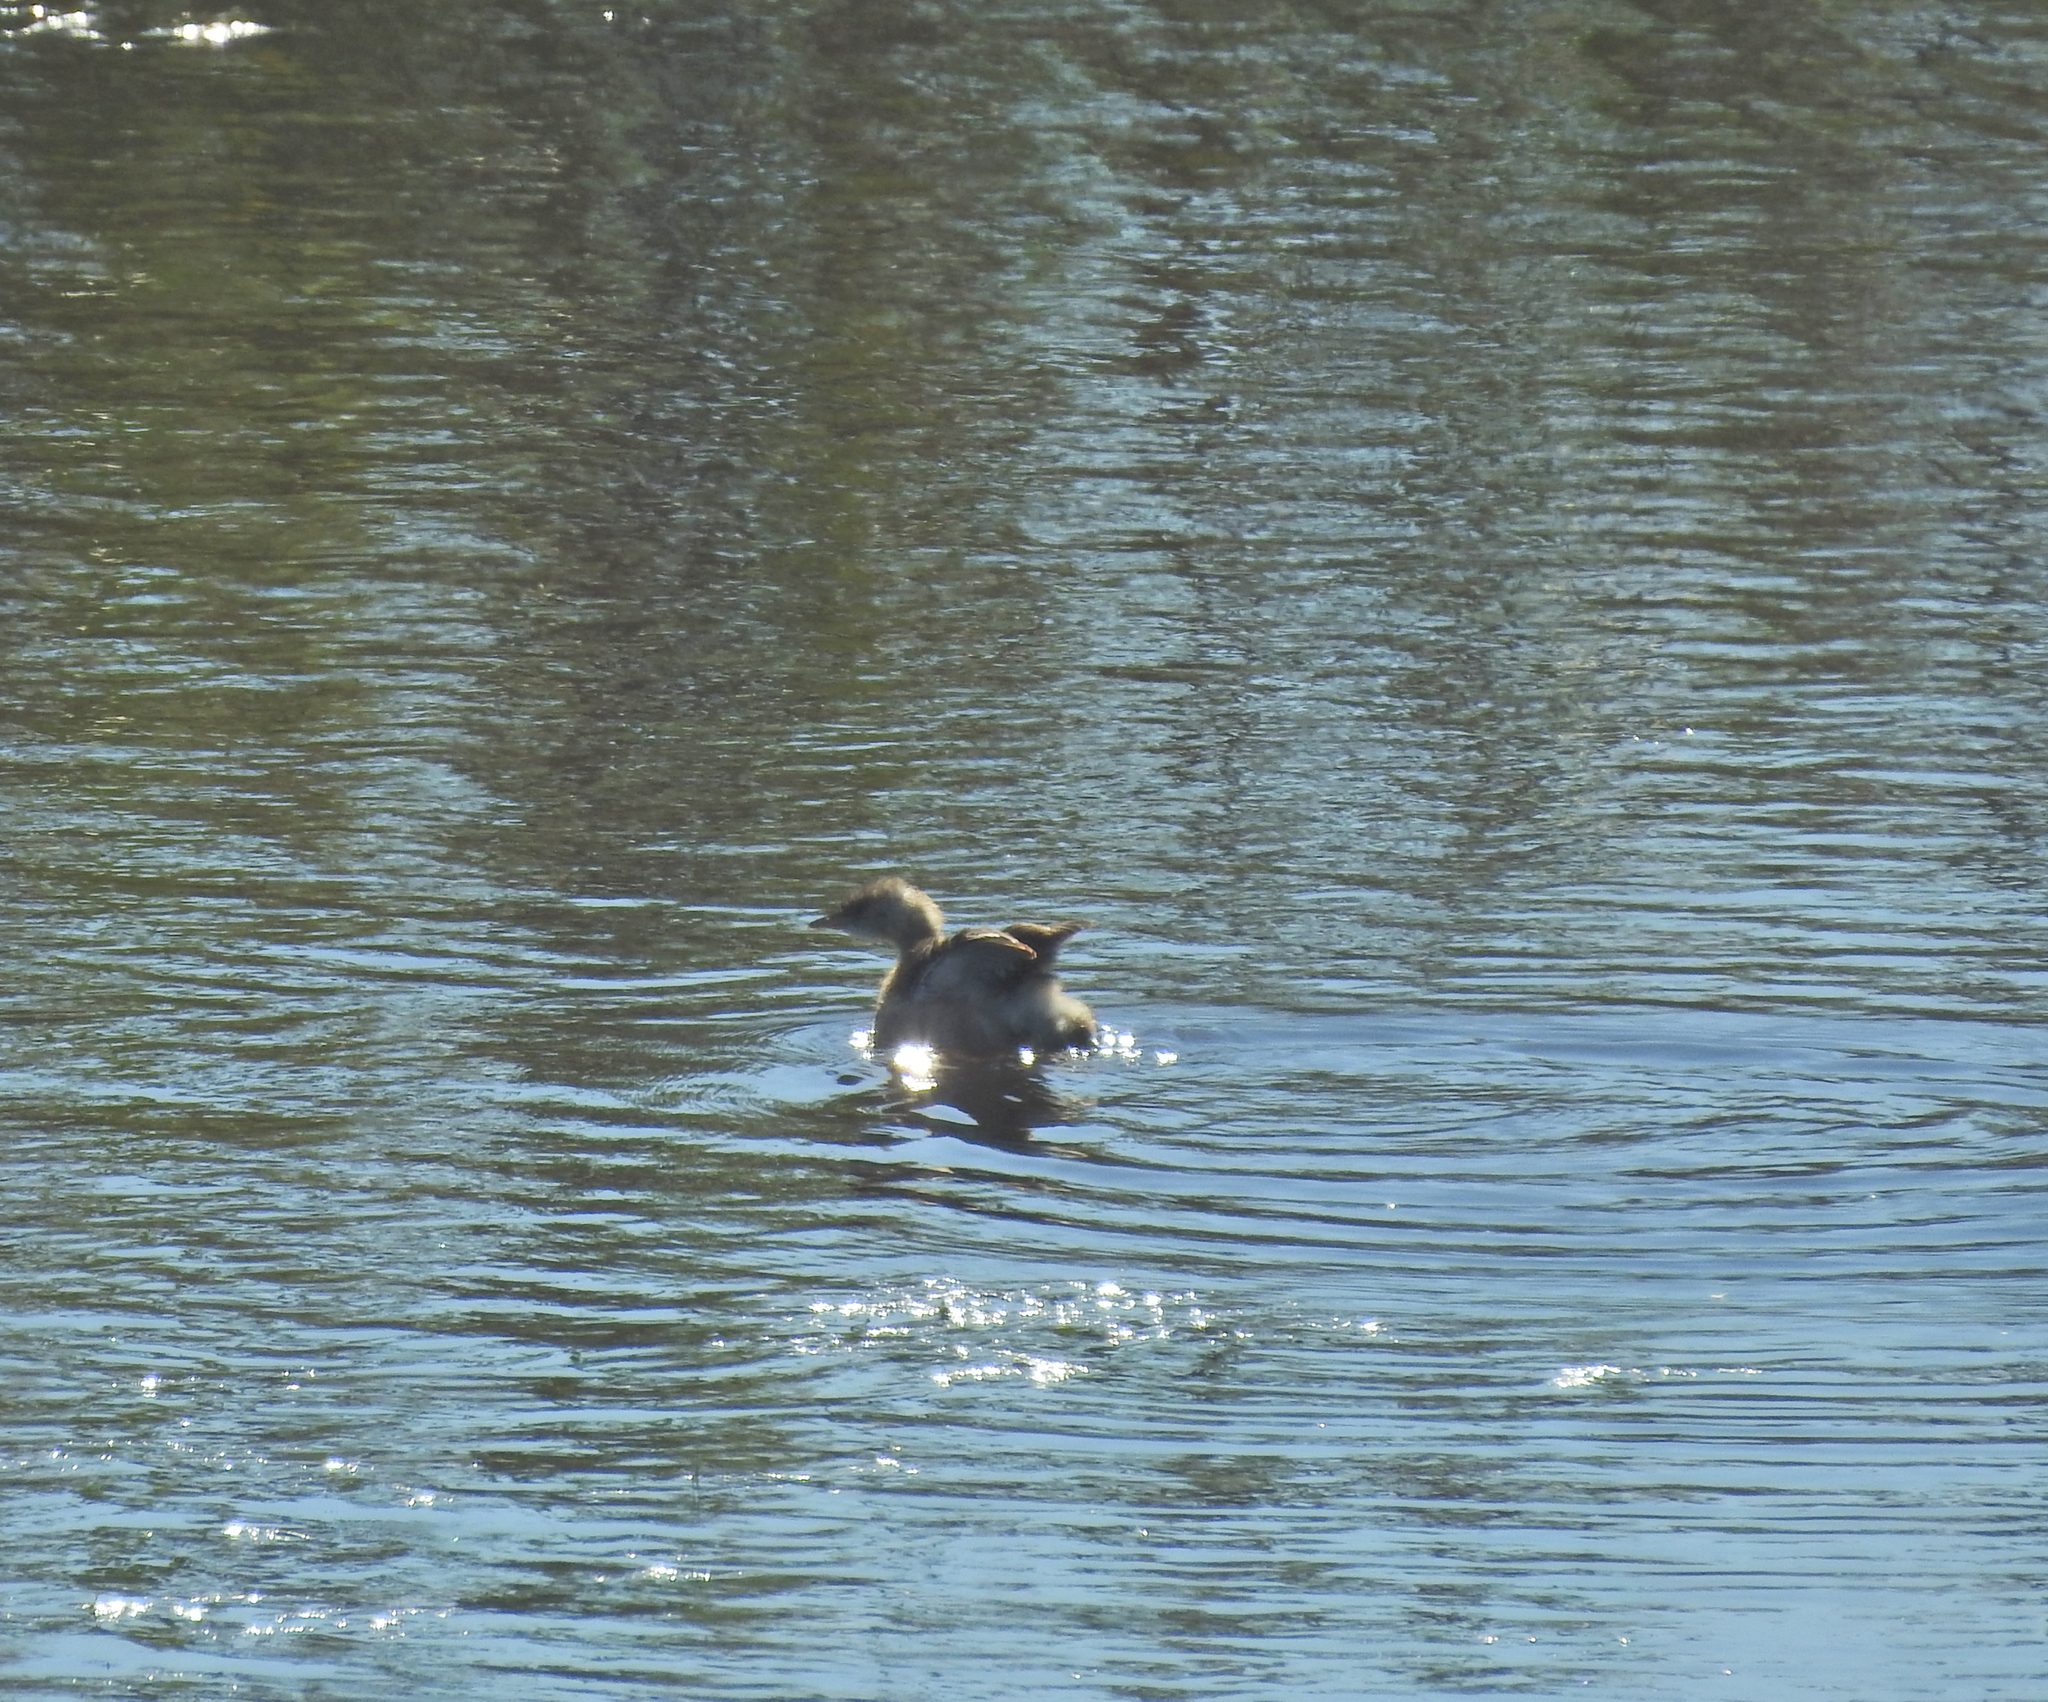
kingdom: Animalia
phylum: Chordata
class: Aves
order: Podicipediformes
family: Podicipedidae
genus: Tachybaptus
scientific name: Tachybaptus ruficollis
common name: Little grebe
